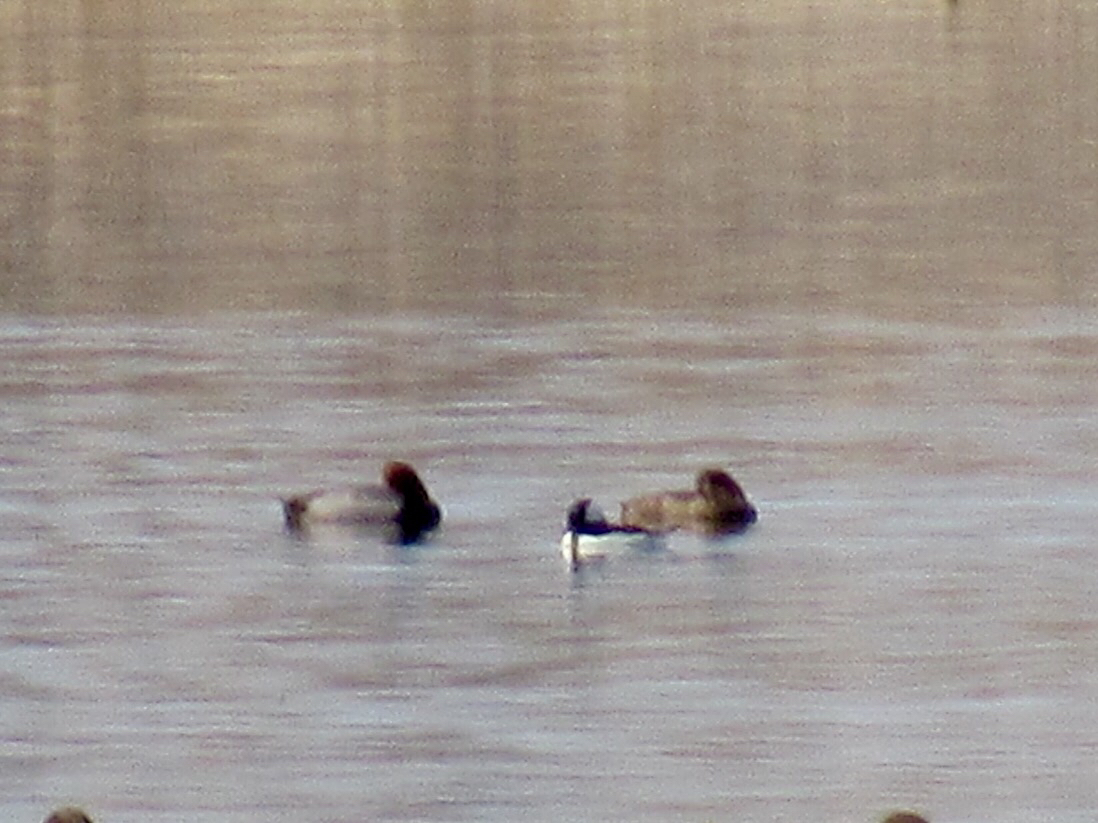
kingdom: Animalia
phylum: Chordata
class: Aves
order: Anseriformes
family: Anatidae
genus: Aythya
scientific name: Aythya americana
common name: Redhead
